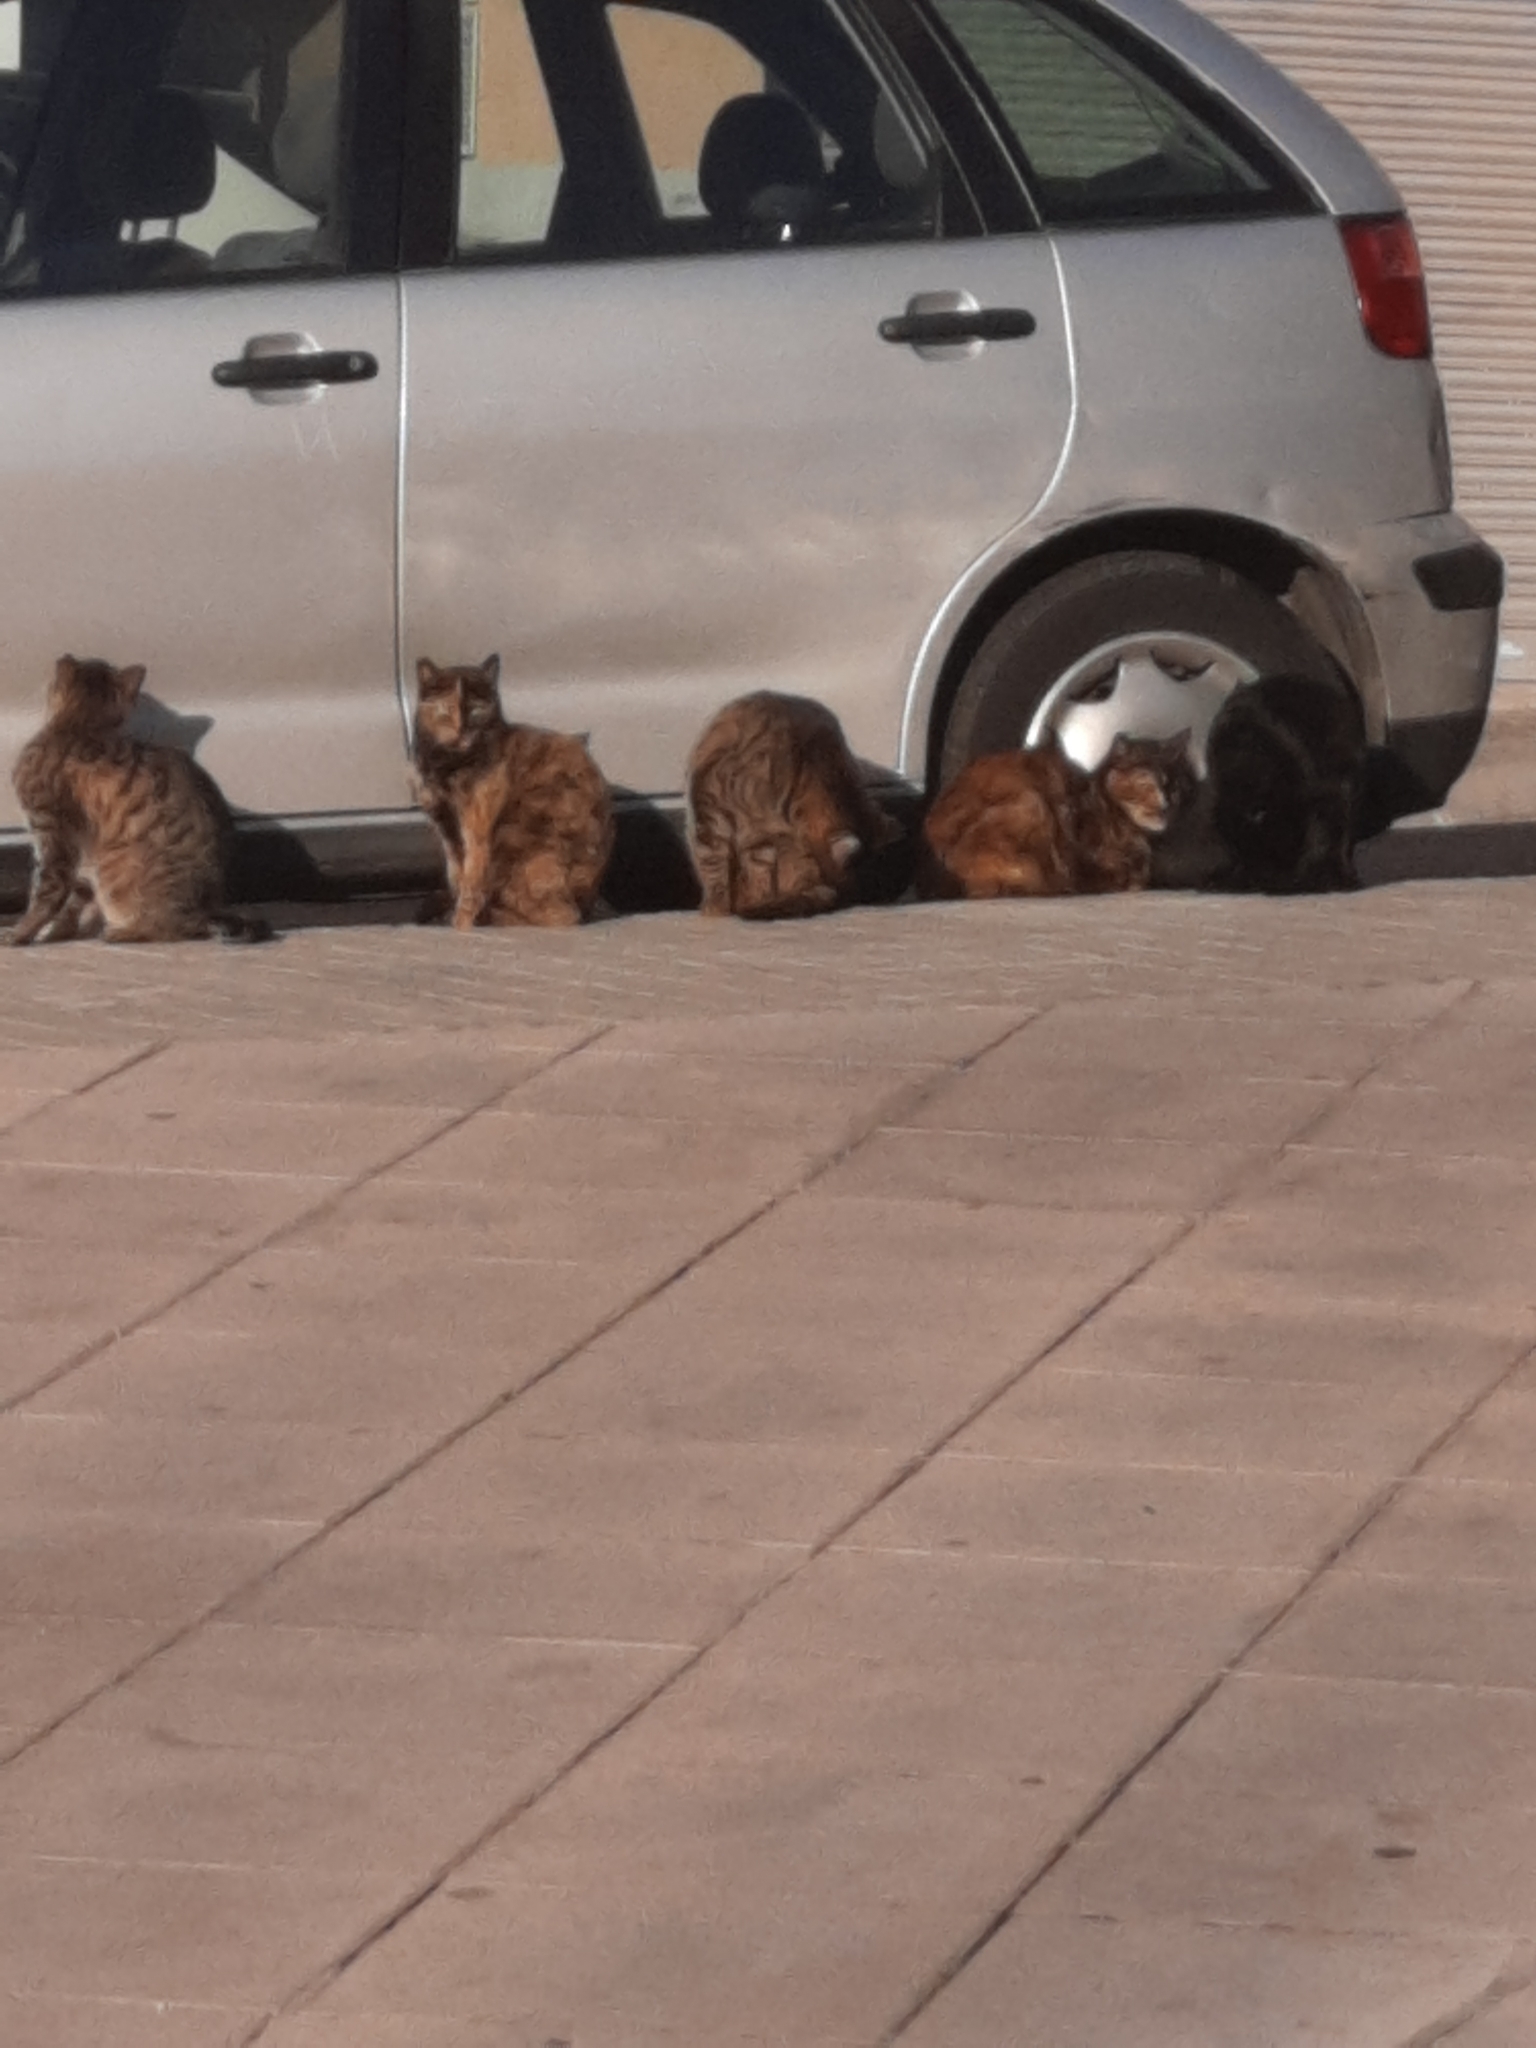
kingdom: Animalia
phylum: Chordata
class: Mammalia
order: Carnivora
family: Felidae
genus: Felis
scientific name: Felis catus
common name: Domestic cat
